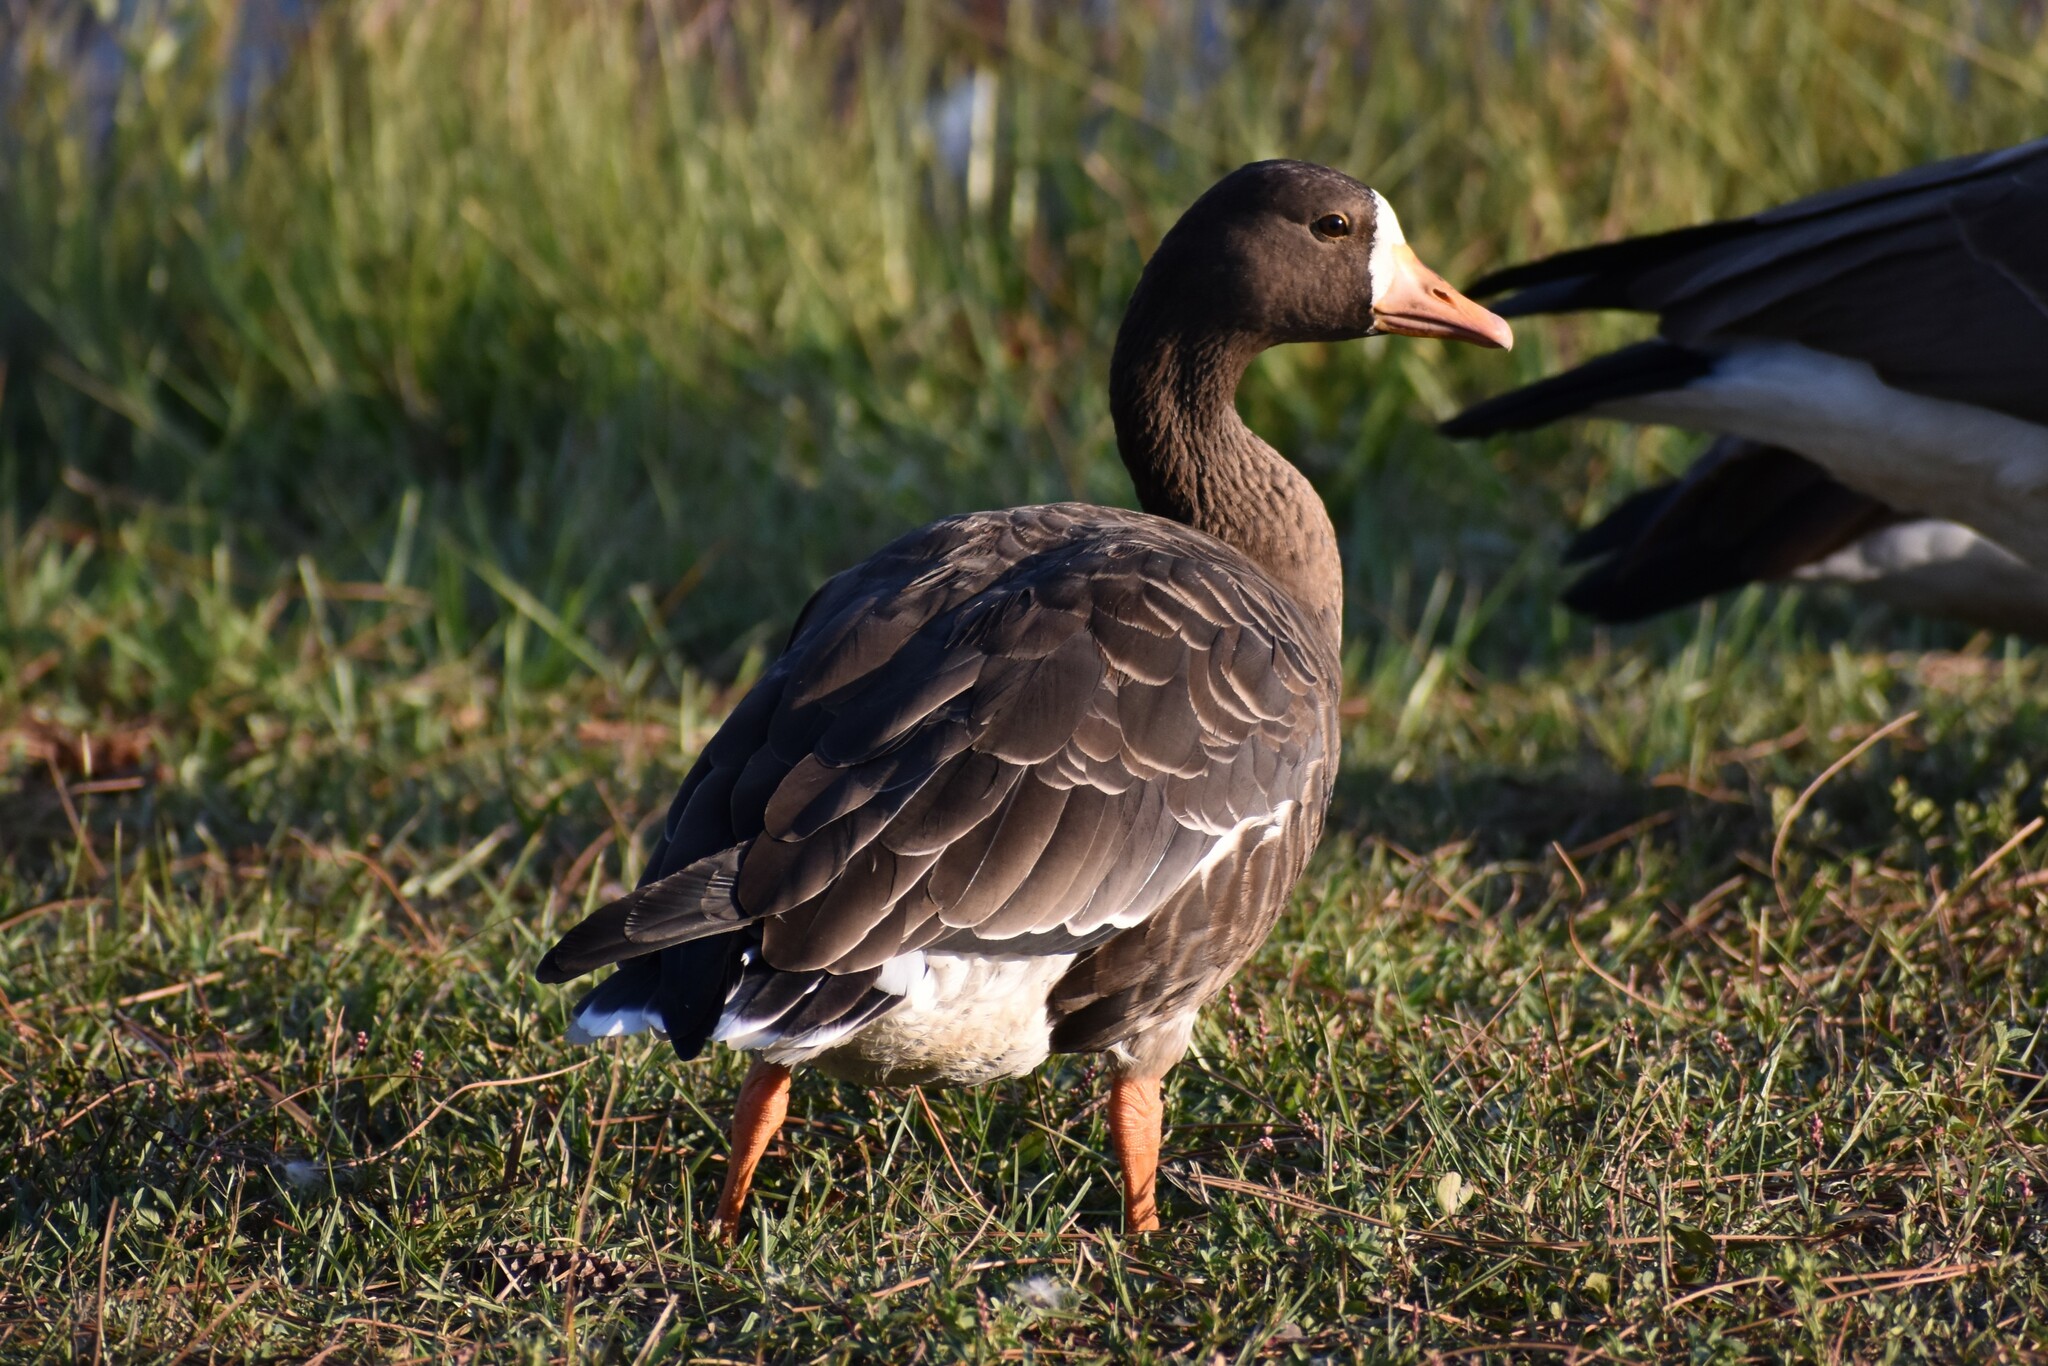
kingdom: Animalia
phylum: Chordata
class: Aves
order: Anseriformes
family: Anatidae
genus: Anser
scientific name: Anser albifrons
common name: Greater white-fronted goose
